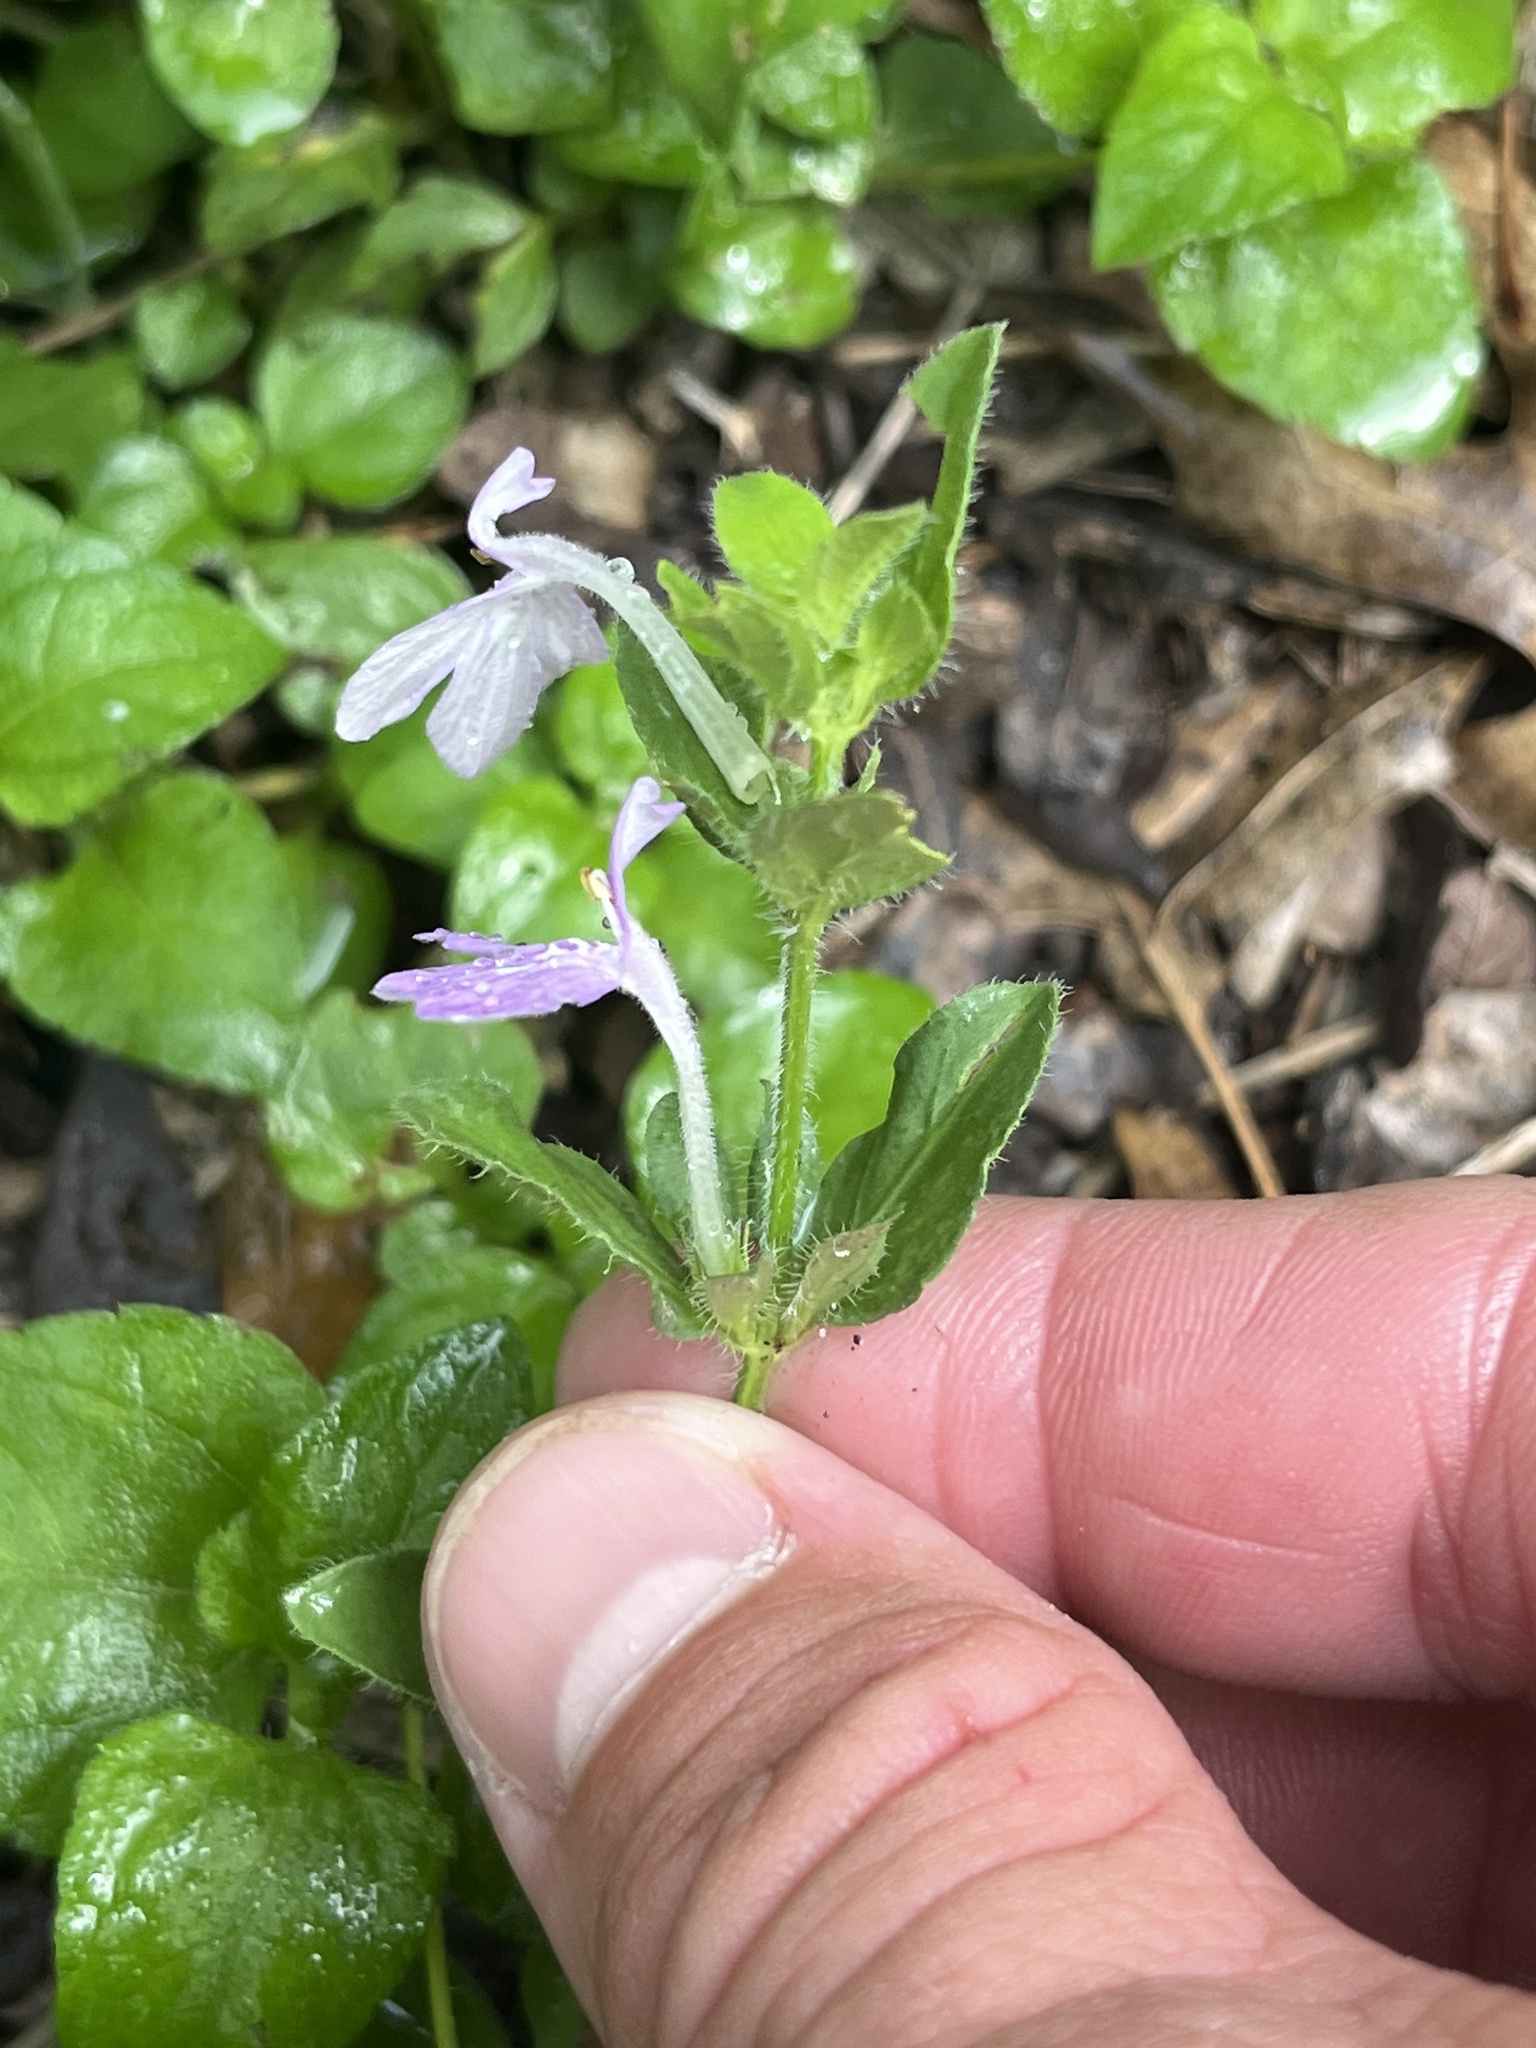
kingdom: Plantae
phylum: Tracheophyta
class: Magnoliopsida
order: Lamiales
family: Acanthaceae
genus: Justicia
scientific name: Justicia pilosella
